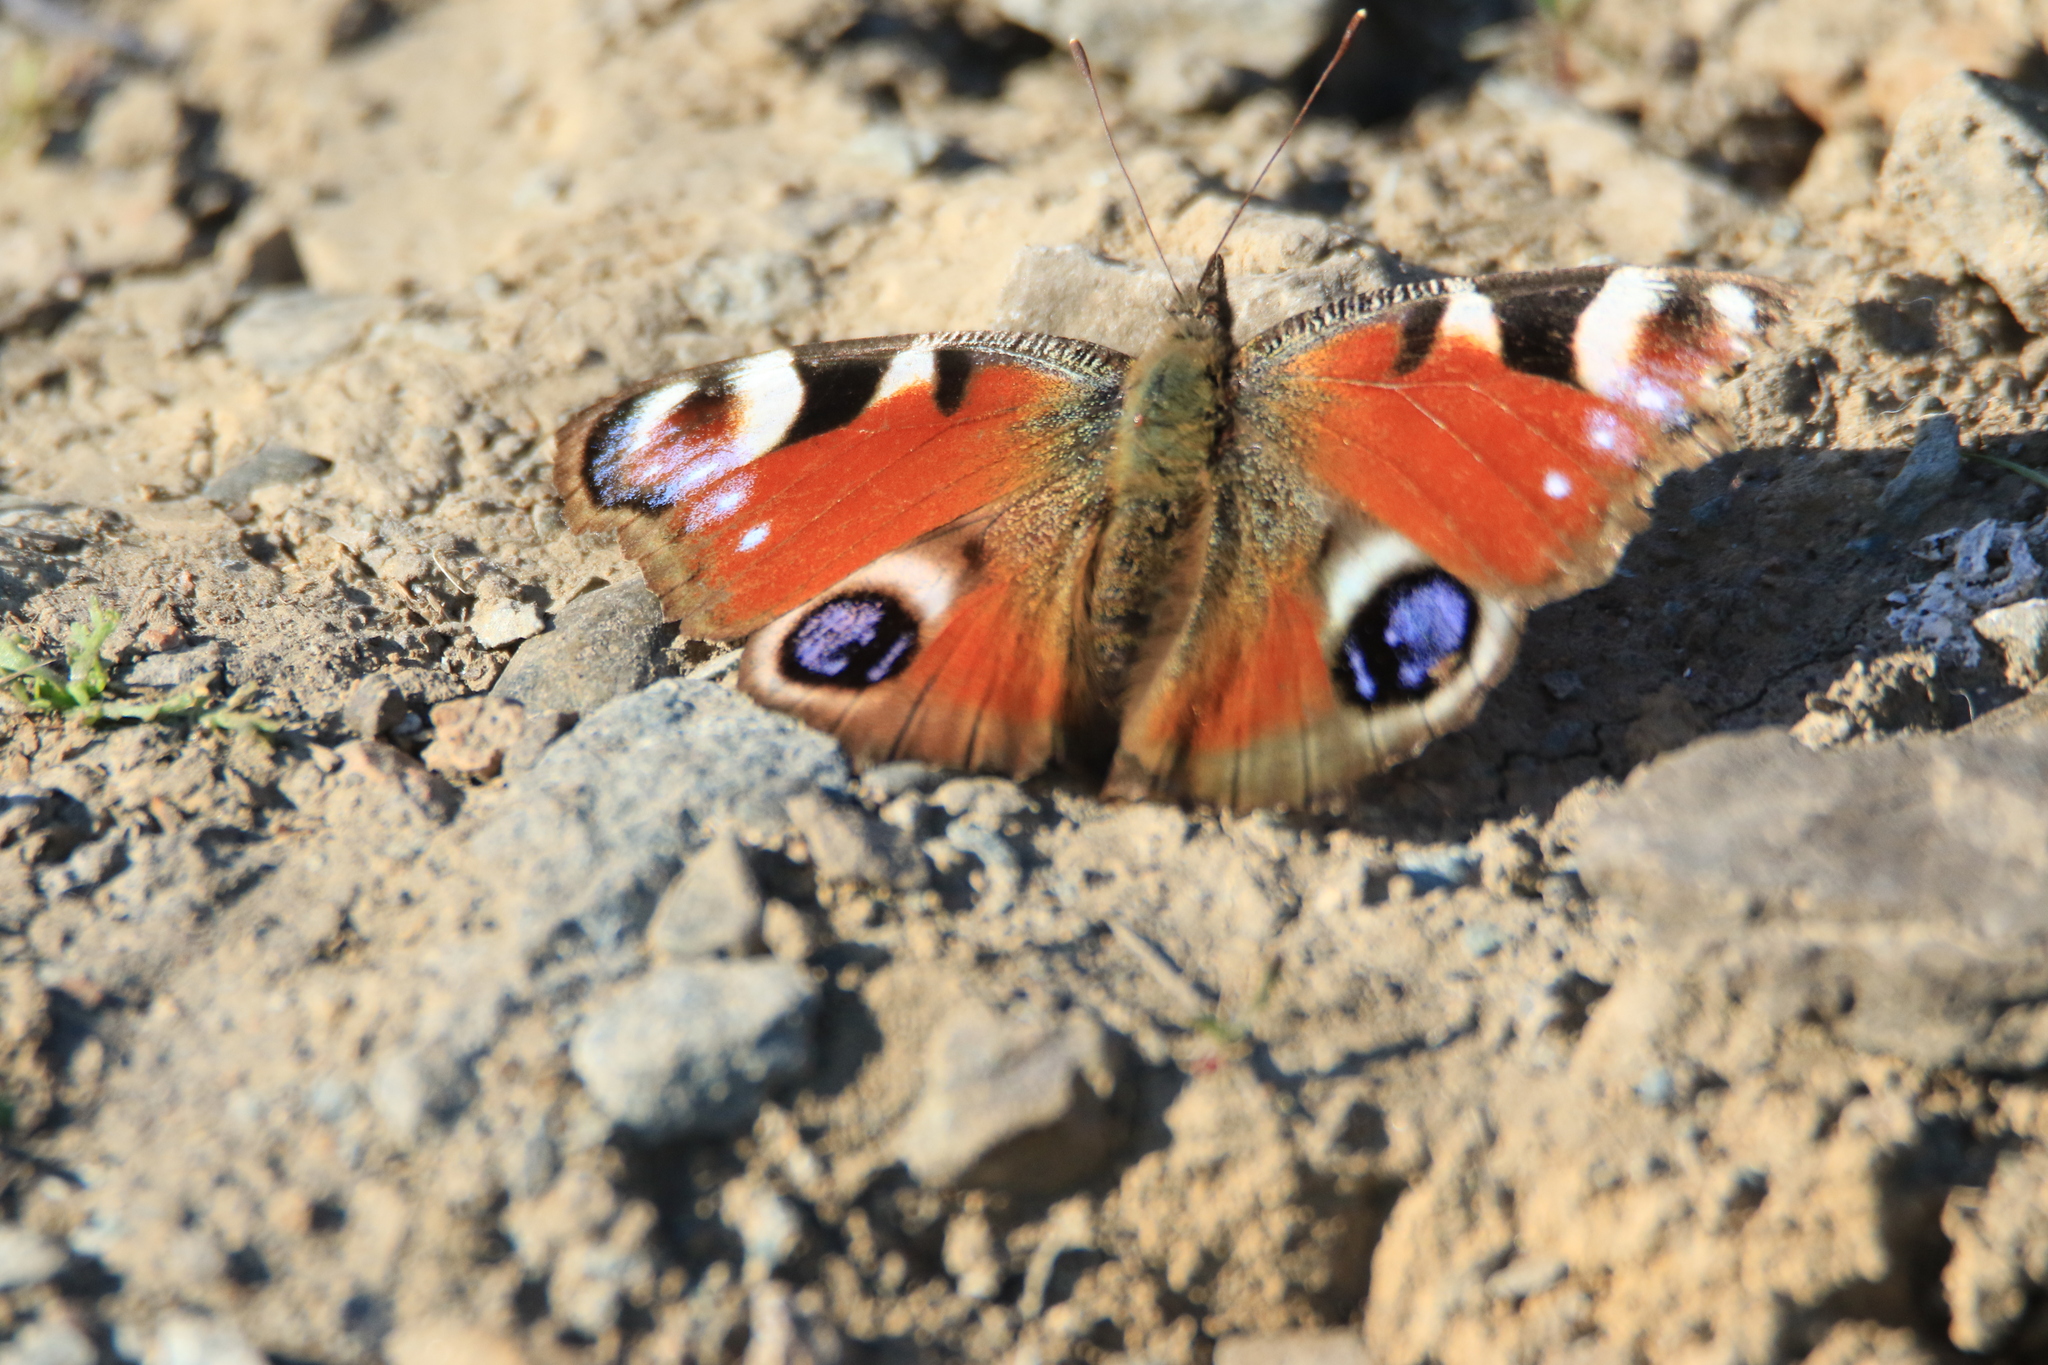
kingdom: Animalia
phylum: Arthropoda
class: Insecta
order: Lepidoptera
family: Nymphalidae
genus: Aglais
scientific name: Aglais io
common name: Peacock
